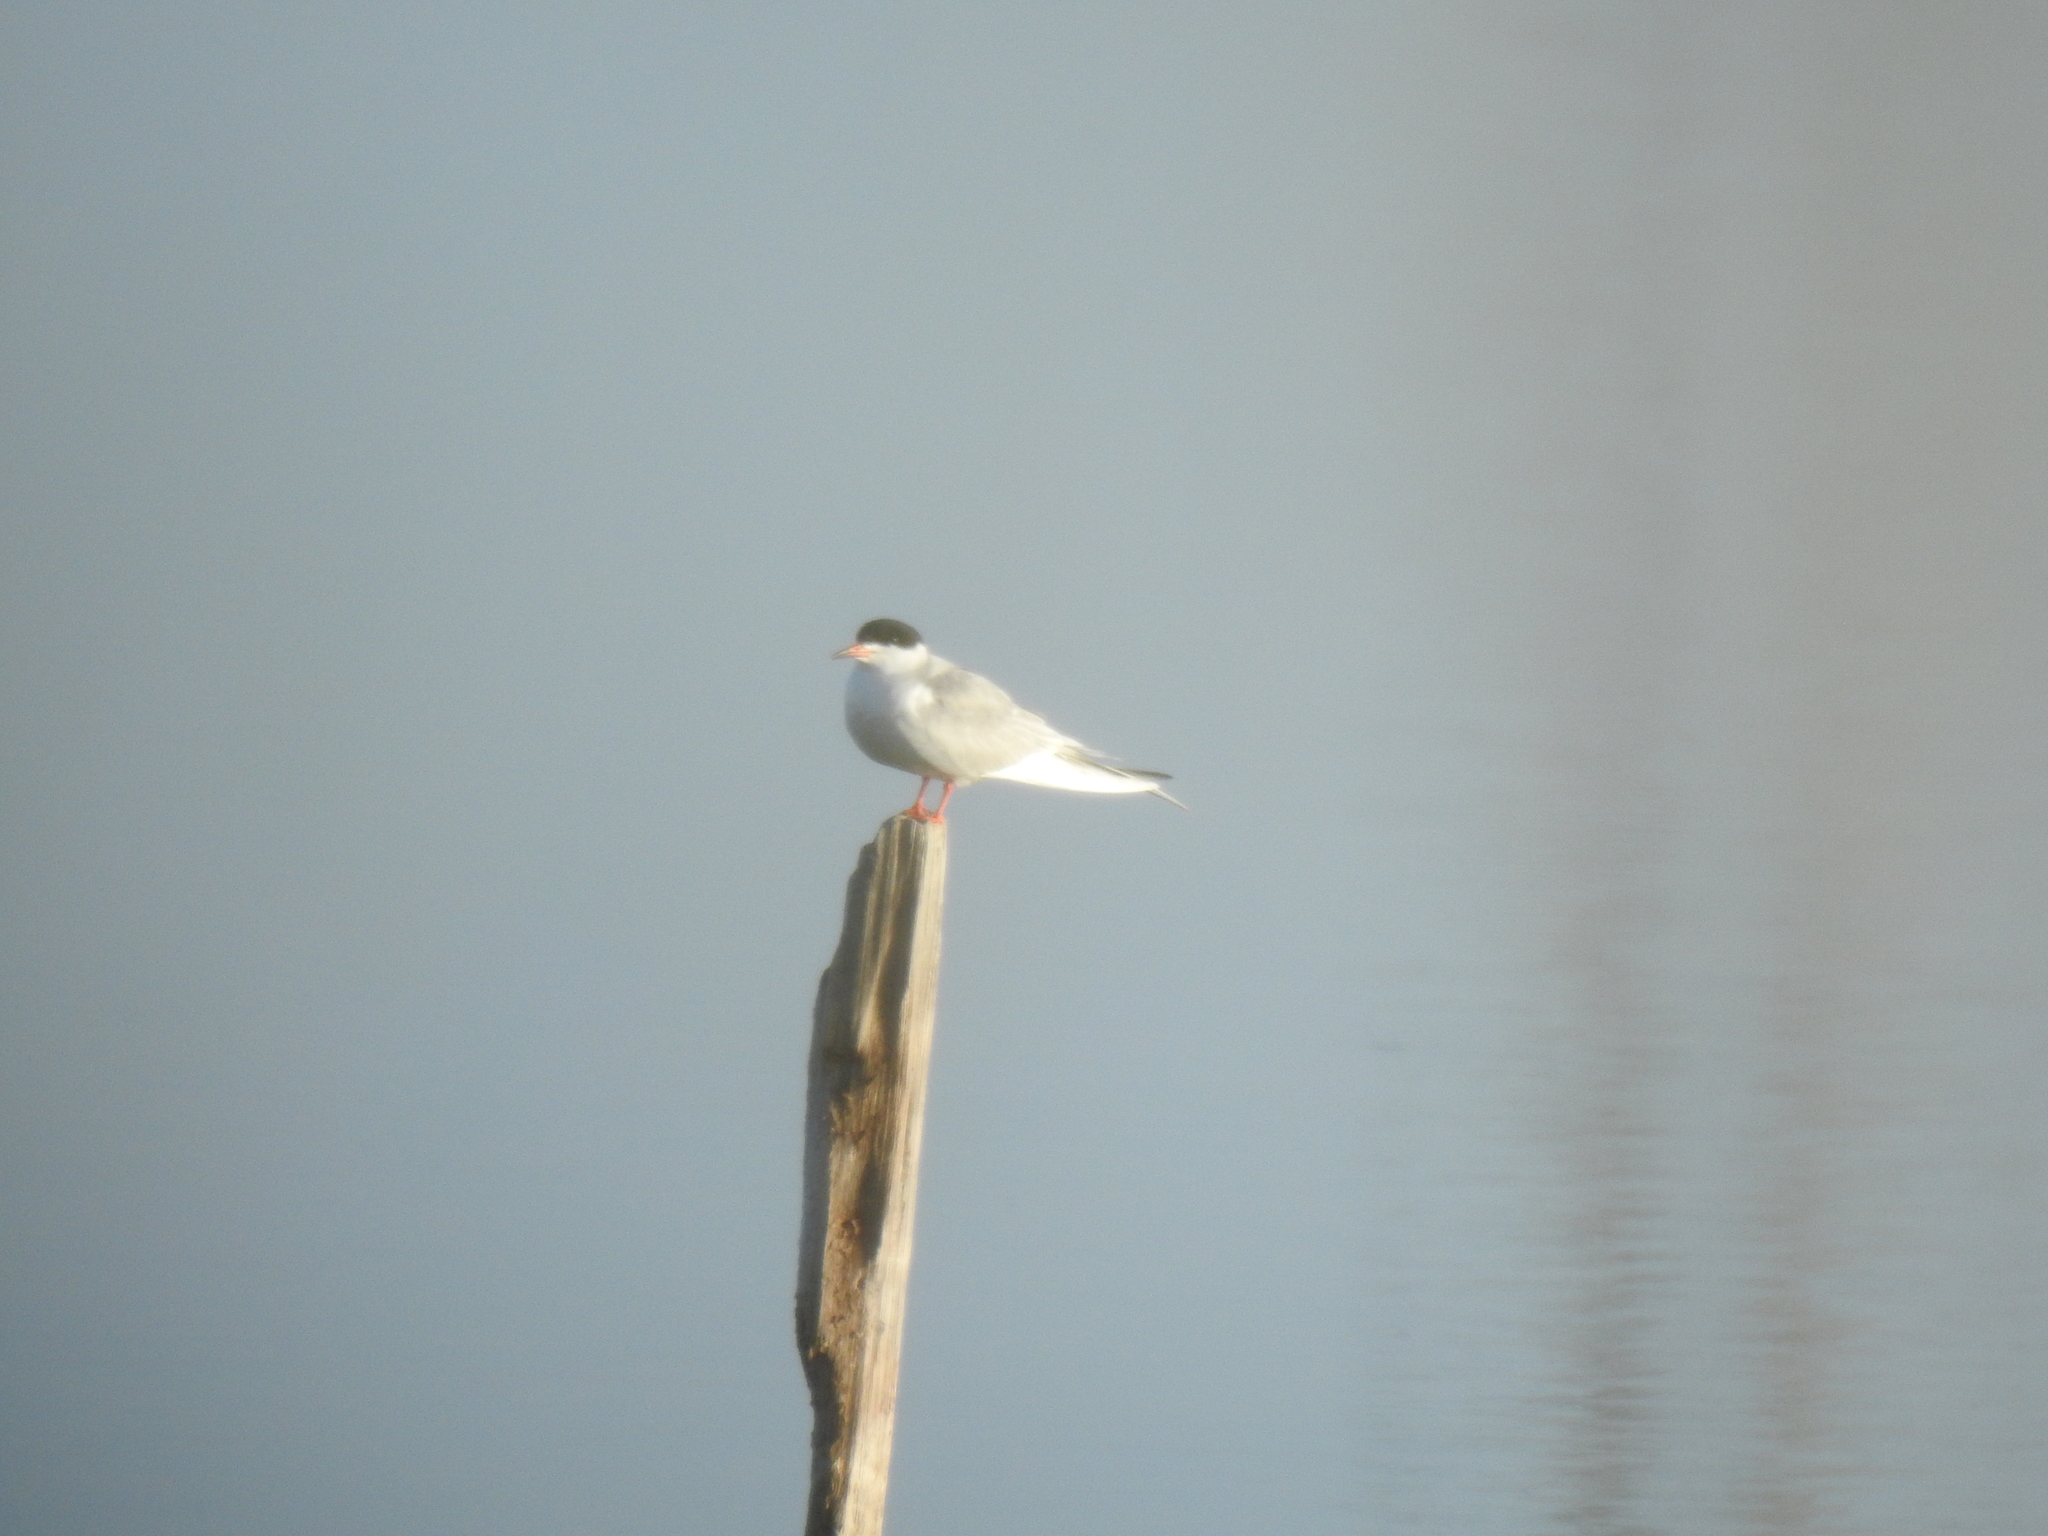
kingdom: Animalia
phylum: Chordata
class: Aves
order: Charadriiformes
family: Laridae
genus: Sterna
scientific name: Sterna forsteri
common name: Forster's tern
